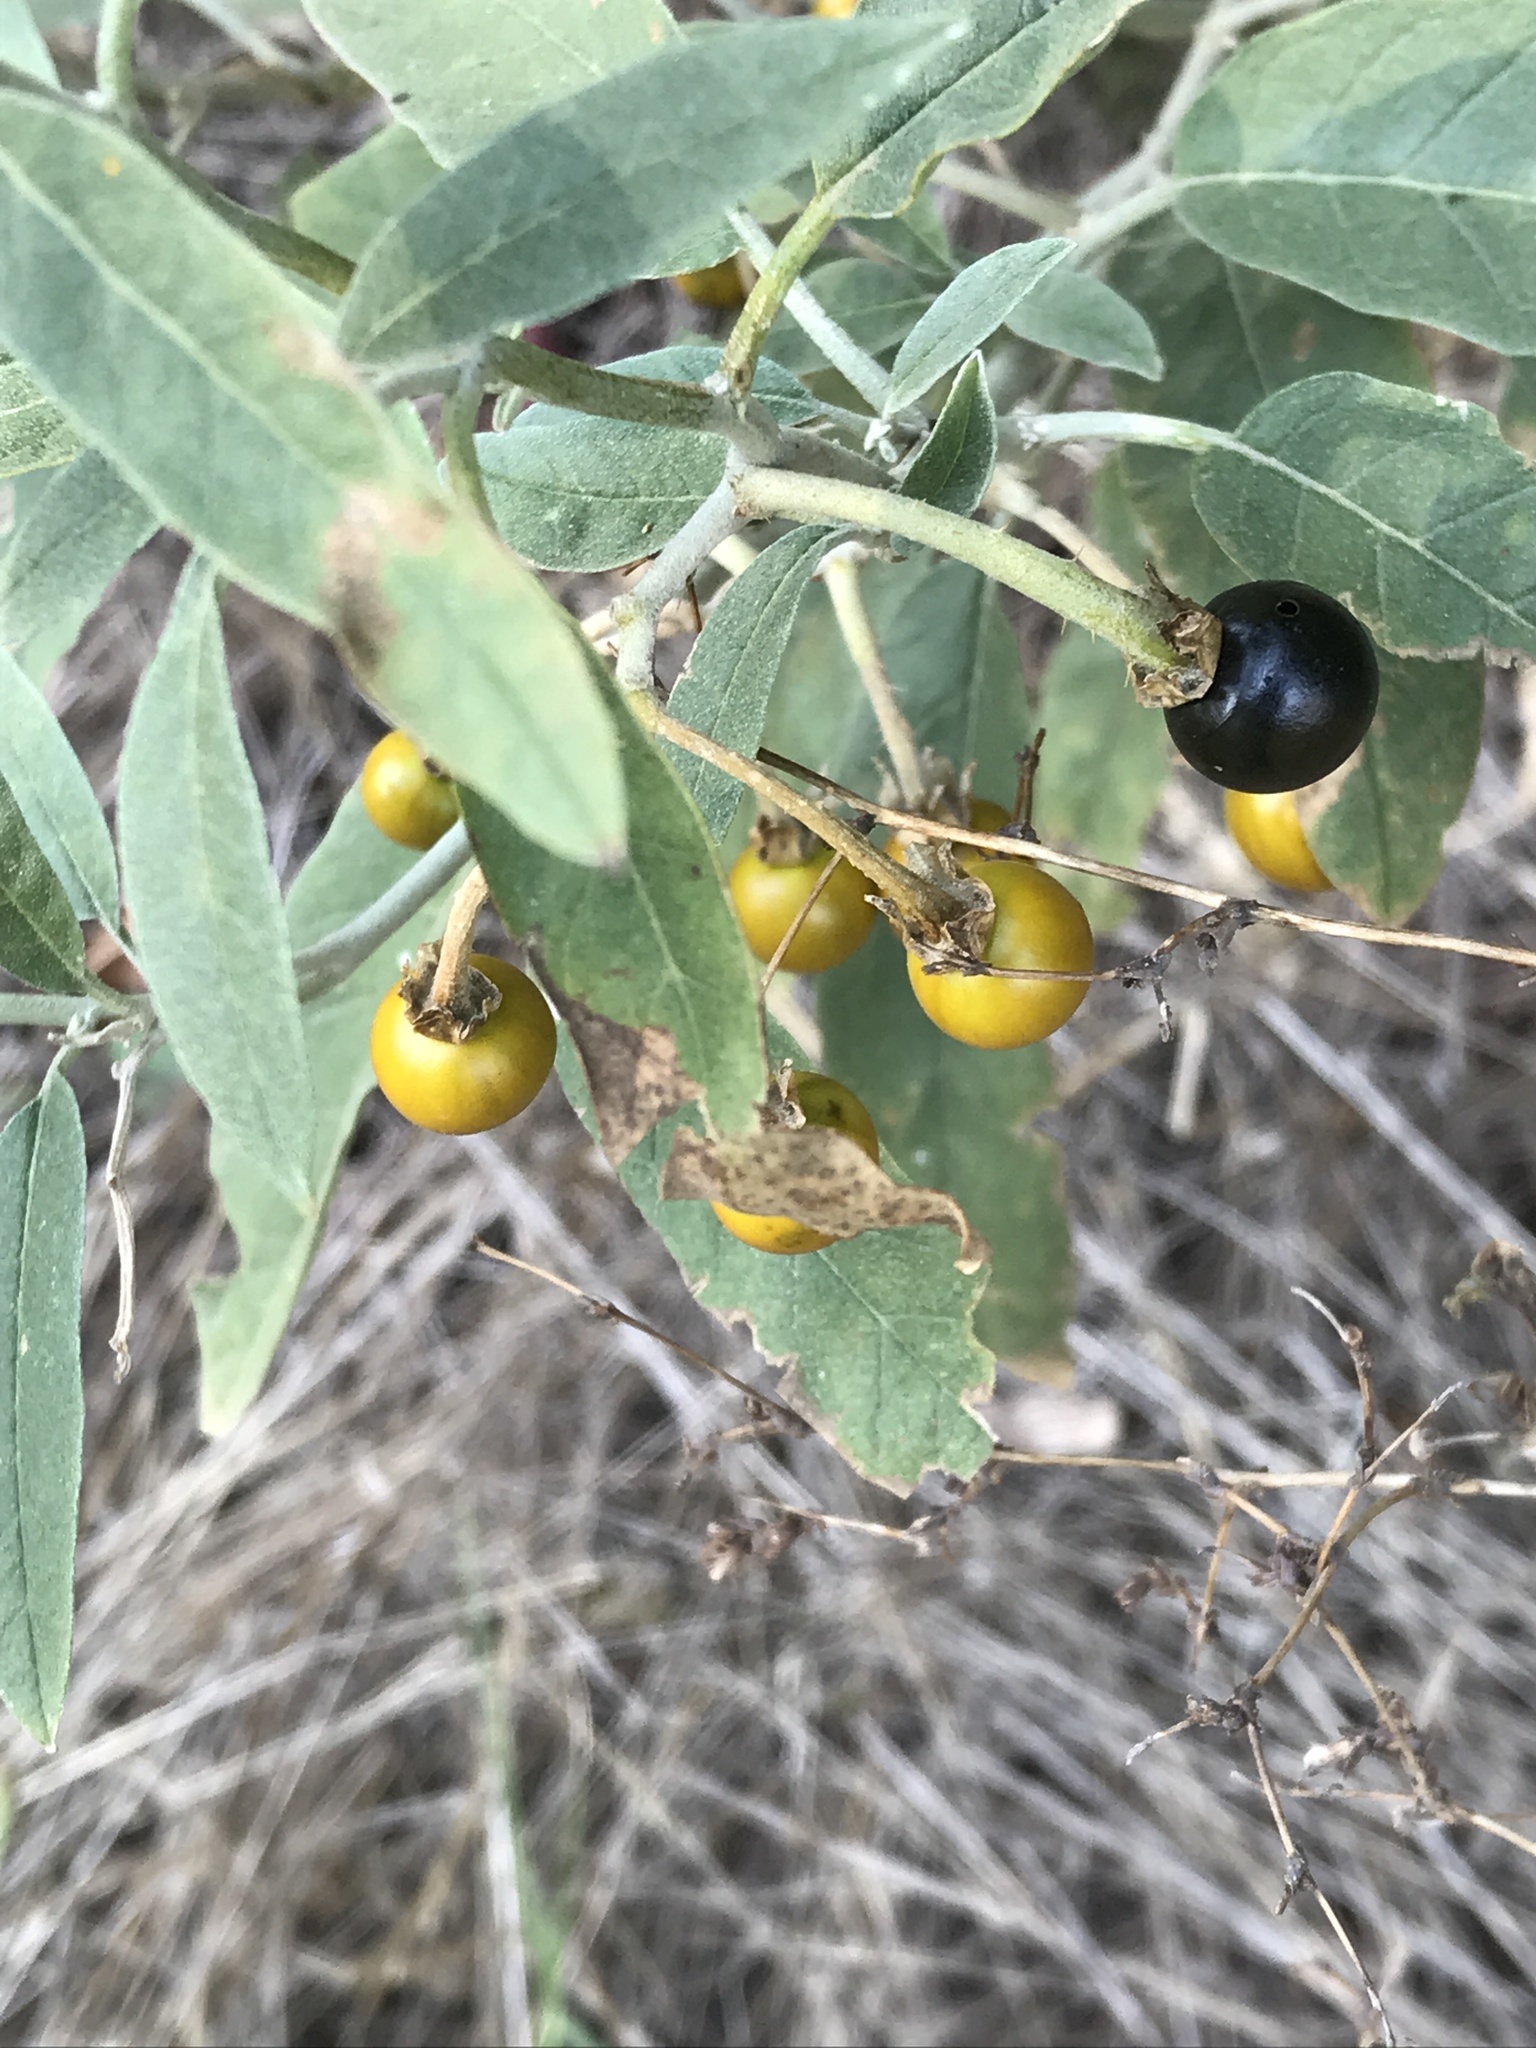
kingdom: Plantae
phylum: Tracheophyta
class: Magnoliopsida
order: Solanales
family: Solanaceae
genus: Solanum
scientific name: Solanum elaeagnifolium
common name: Silverleaf nightshade
